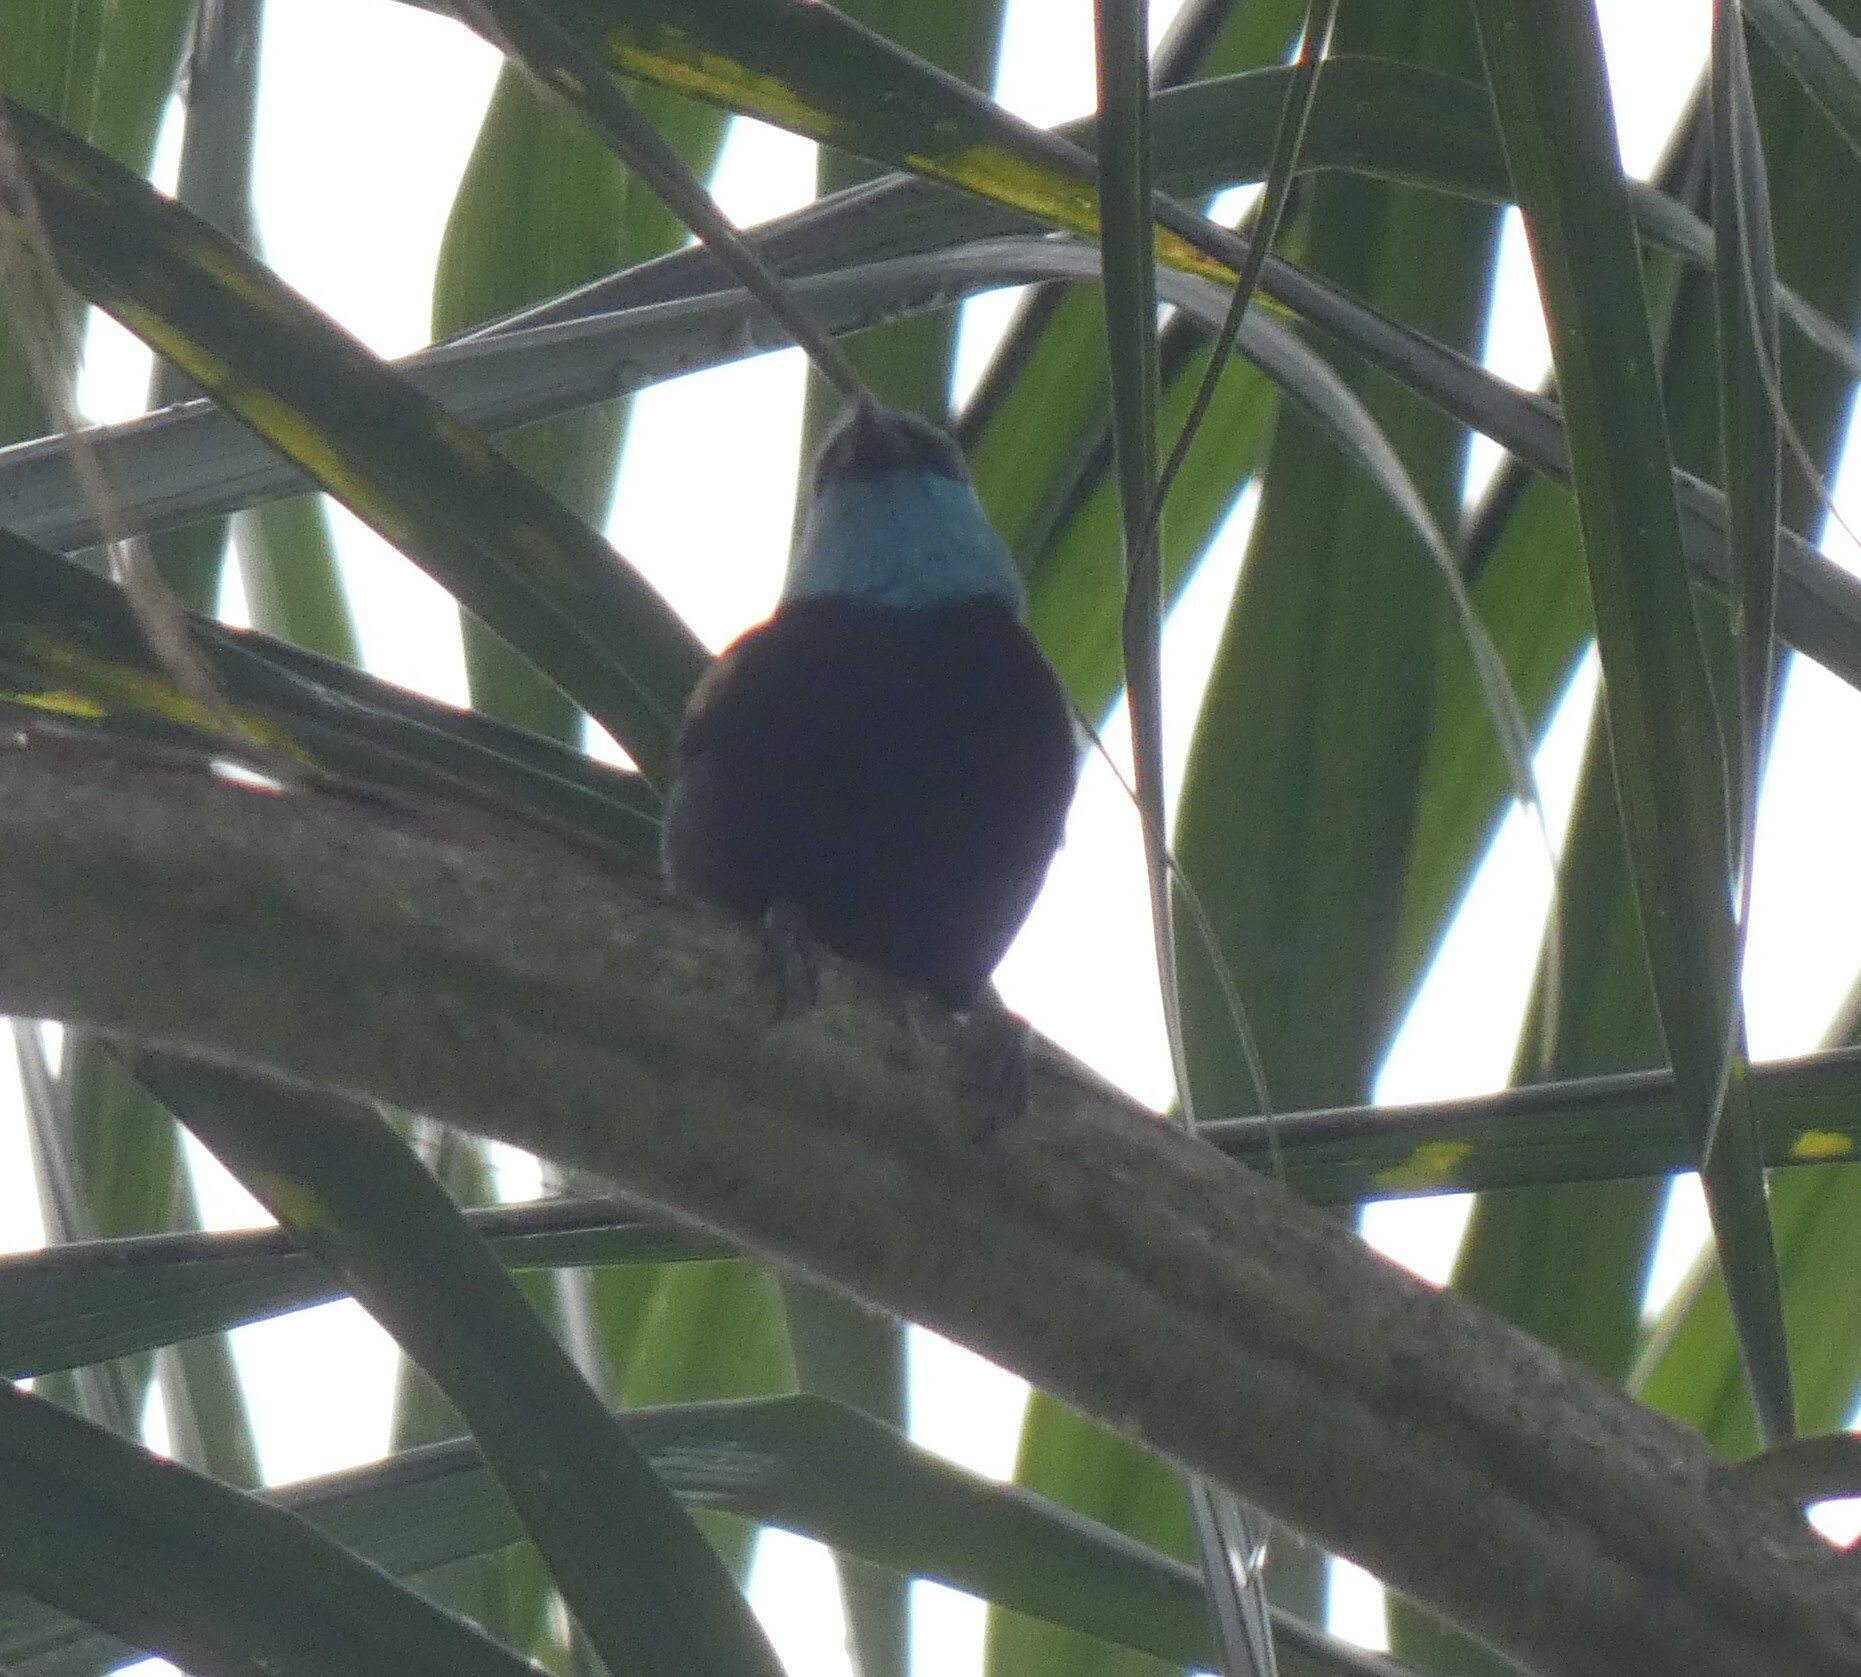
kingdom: Animalia
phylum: Chordata
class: Aves
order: Passeriformes
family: Thraupidae
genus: Stilpnia
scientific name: Stilpnia cyanicollis
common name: Blue-necked tanager
